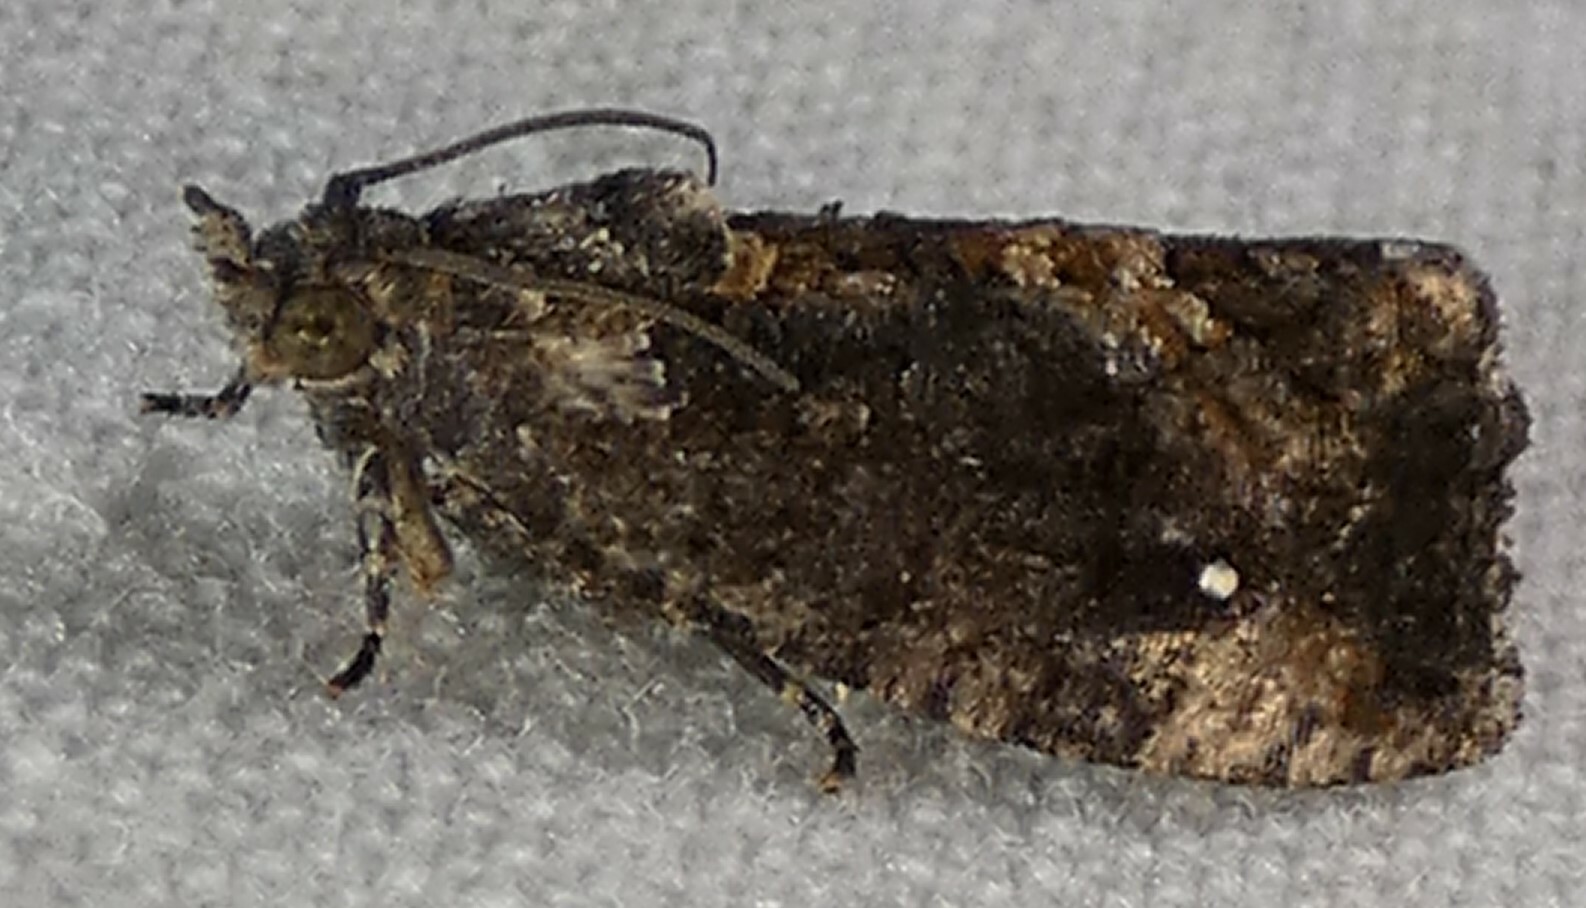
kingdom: Animalia
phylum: Arthropoda
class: Insecta
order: Lepidoptera
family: Tortricidae
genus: Gymnandrosoma
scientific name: Gymnandrosoma punctidiscanum
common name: Dotted ecdytolopha moth
